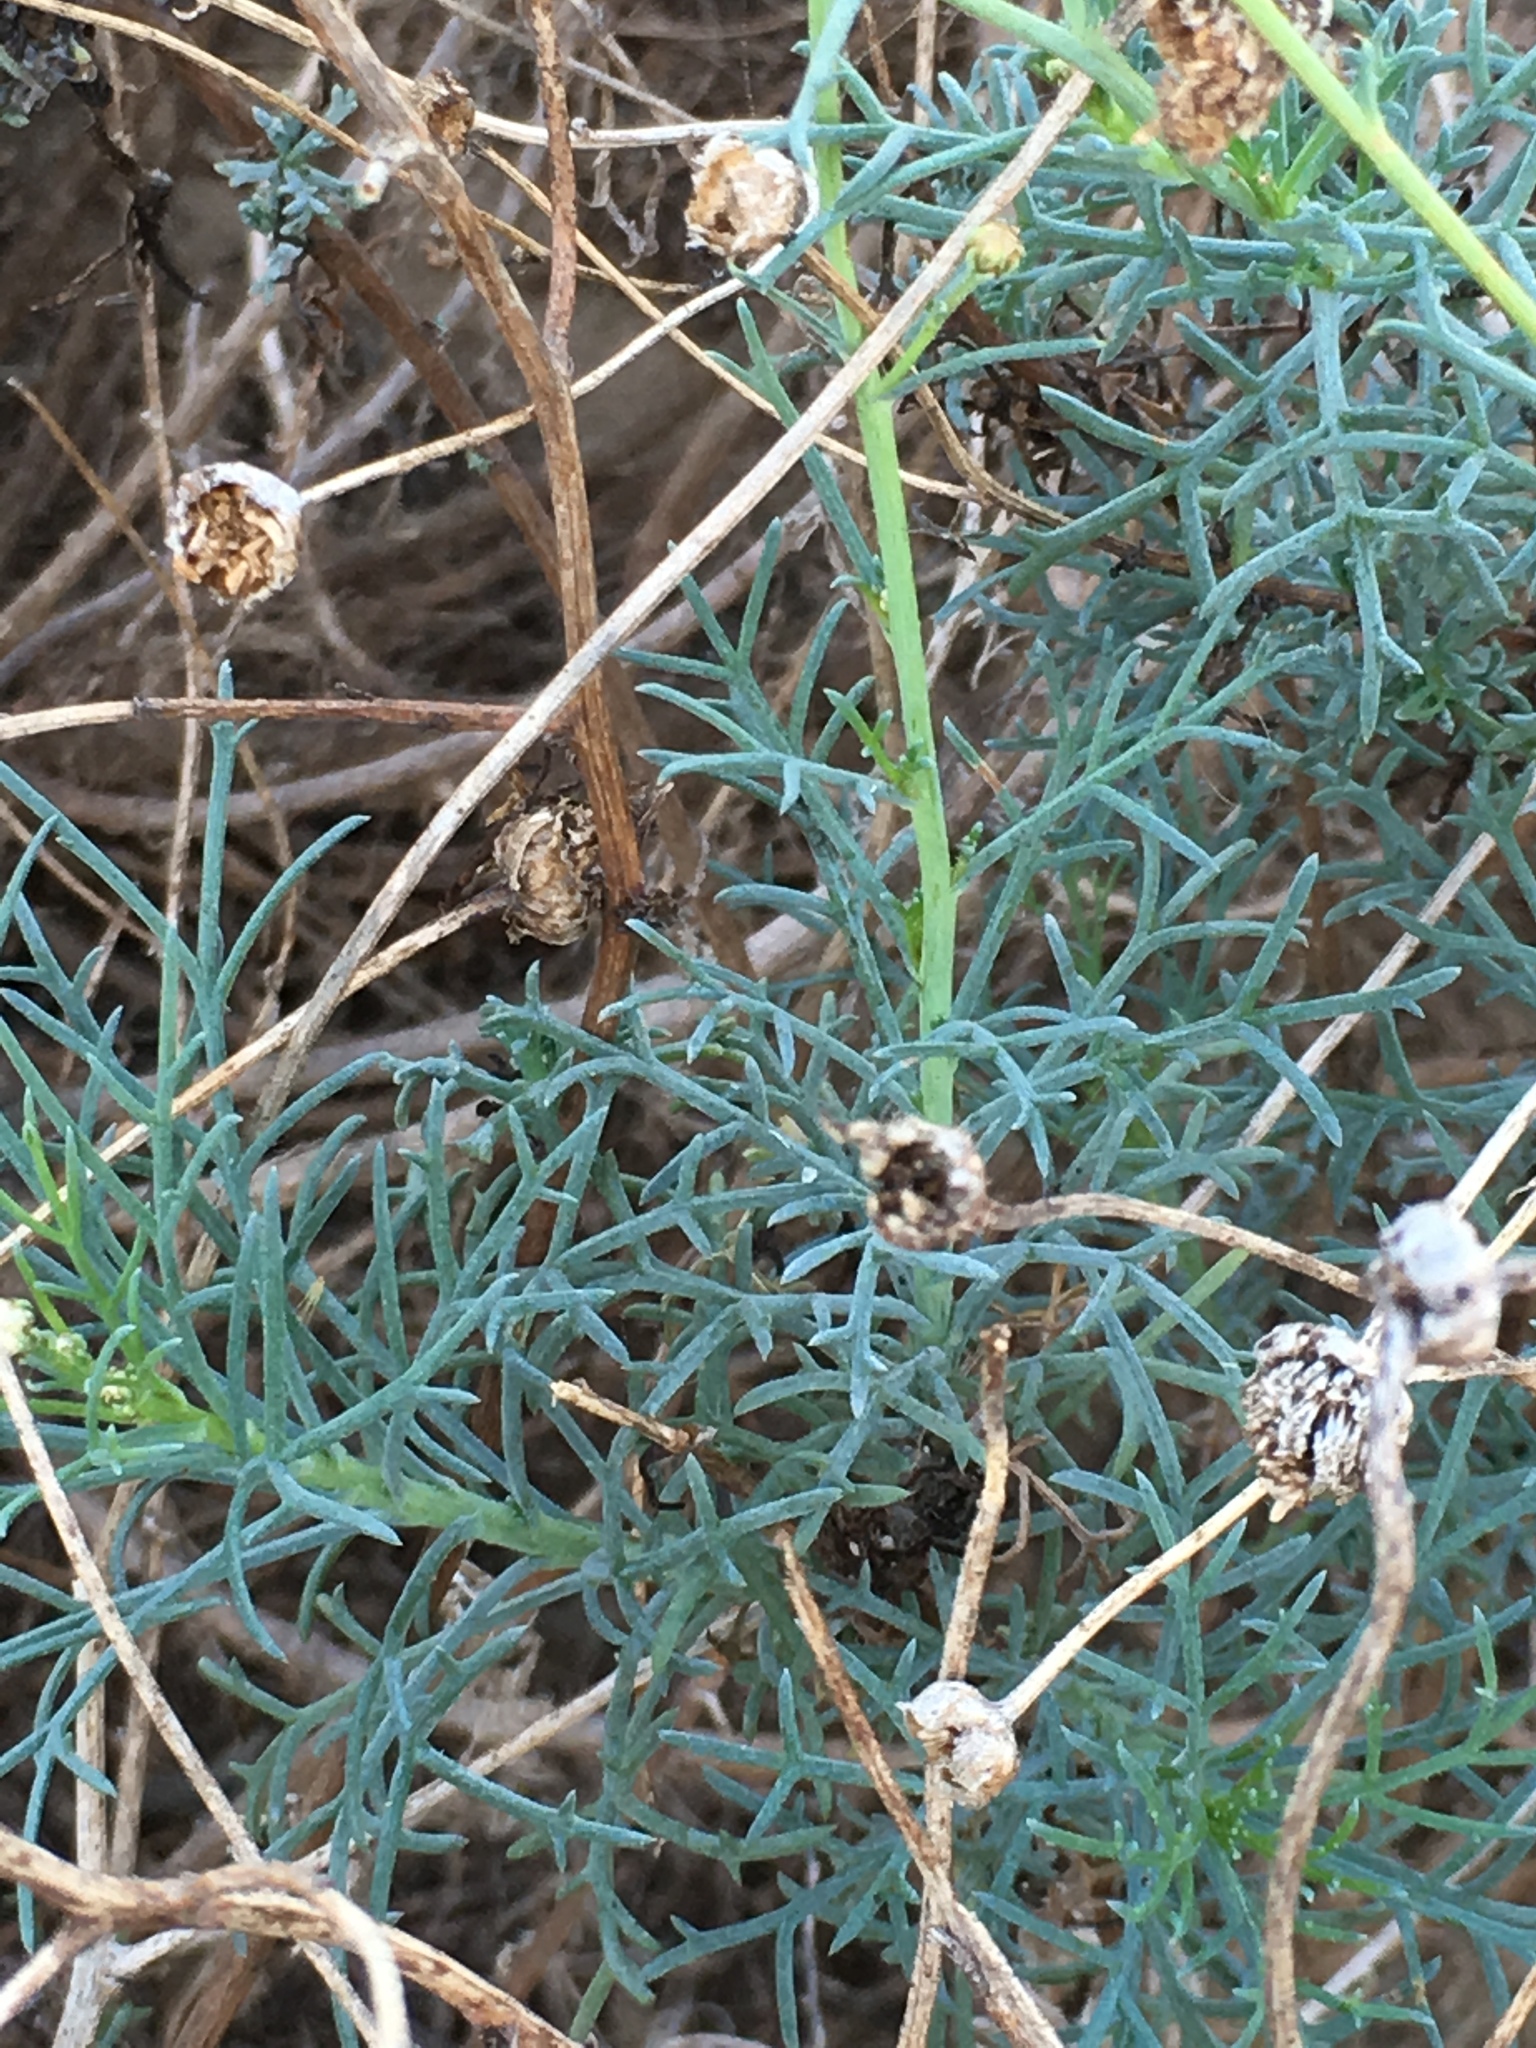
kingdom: Plantae
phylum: Tracheophyta
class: Magnoliopsida
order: Asterales
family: Asteraceae
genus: Argyranthemum
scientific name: Argyranthemum frutescens
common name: Paris daisy
